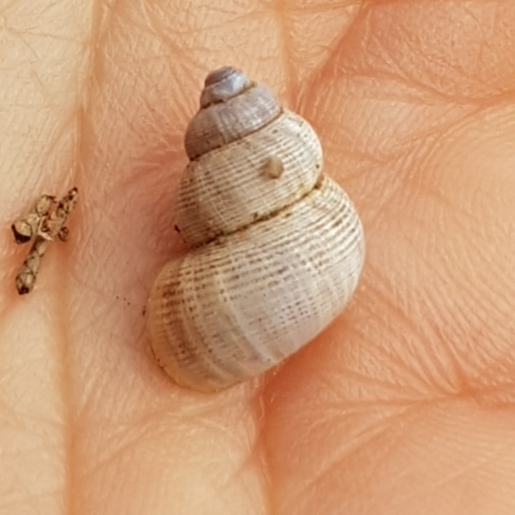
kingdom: Animalia
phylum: Mollusca
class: Gastropoda
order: Littorinimorpha
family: Pomatiidae
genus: Pomatias
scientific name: Pomatias elegans
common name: Red-mouthed snail
